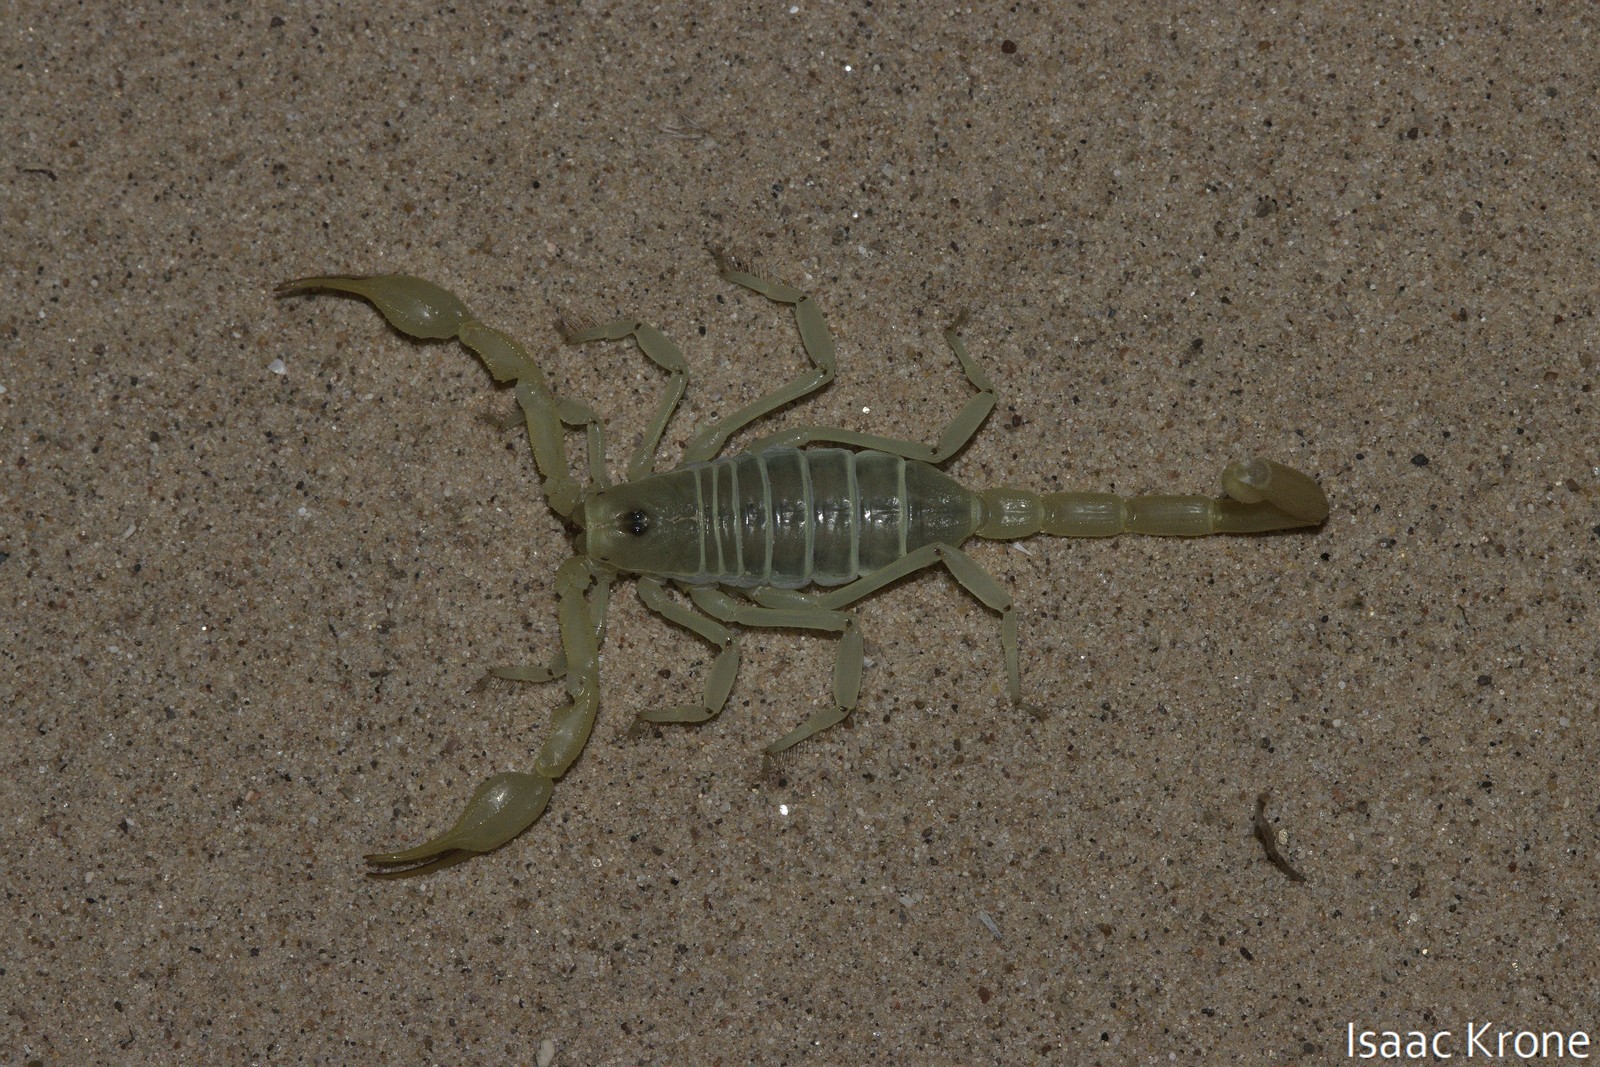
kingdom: Animalia
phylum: Arthropoda
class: Arachnida
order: Scorpiones
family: Vaejovidae
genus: Smeringurus
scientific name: Smeringurus mesaensis
